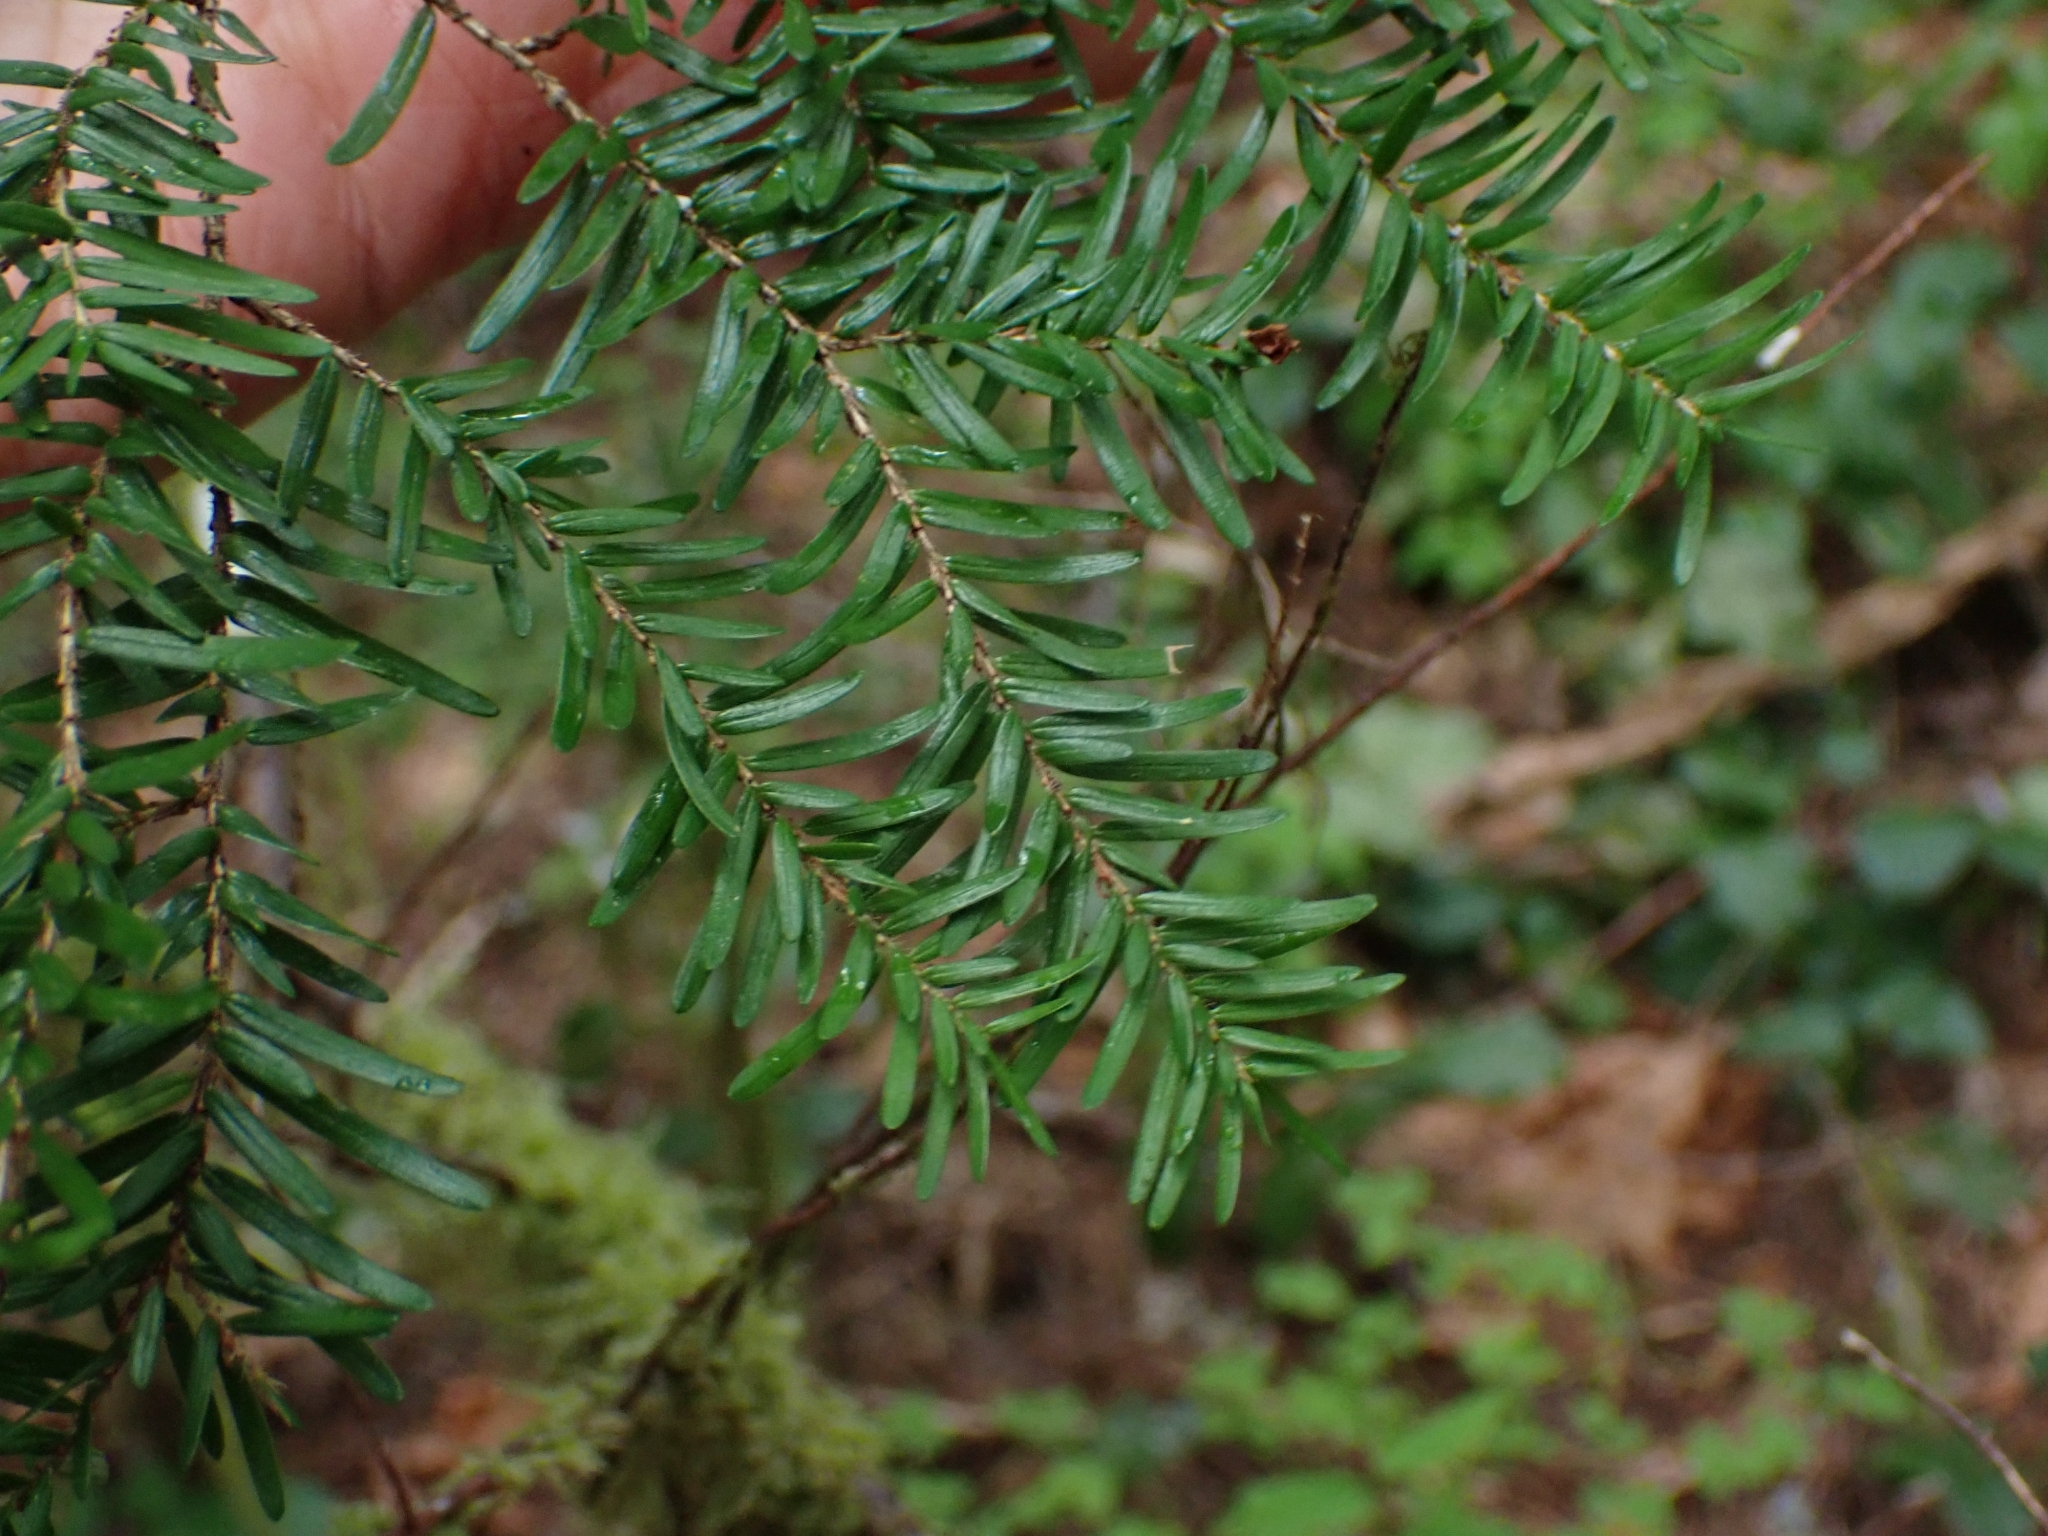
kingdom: Plantae
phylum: Tracheophyta
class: Pinopsida
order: Pinales
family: Pinaceae
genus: Tsuga
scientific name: Tsuga heterophylla
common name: Western hemlock
